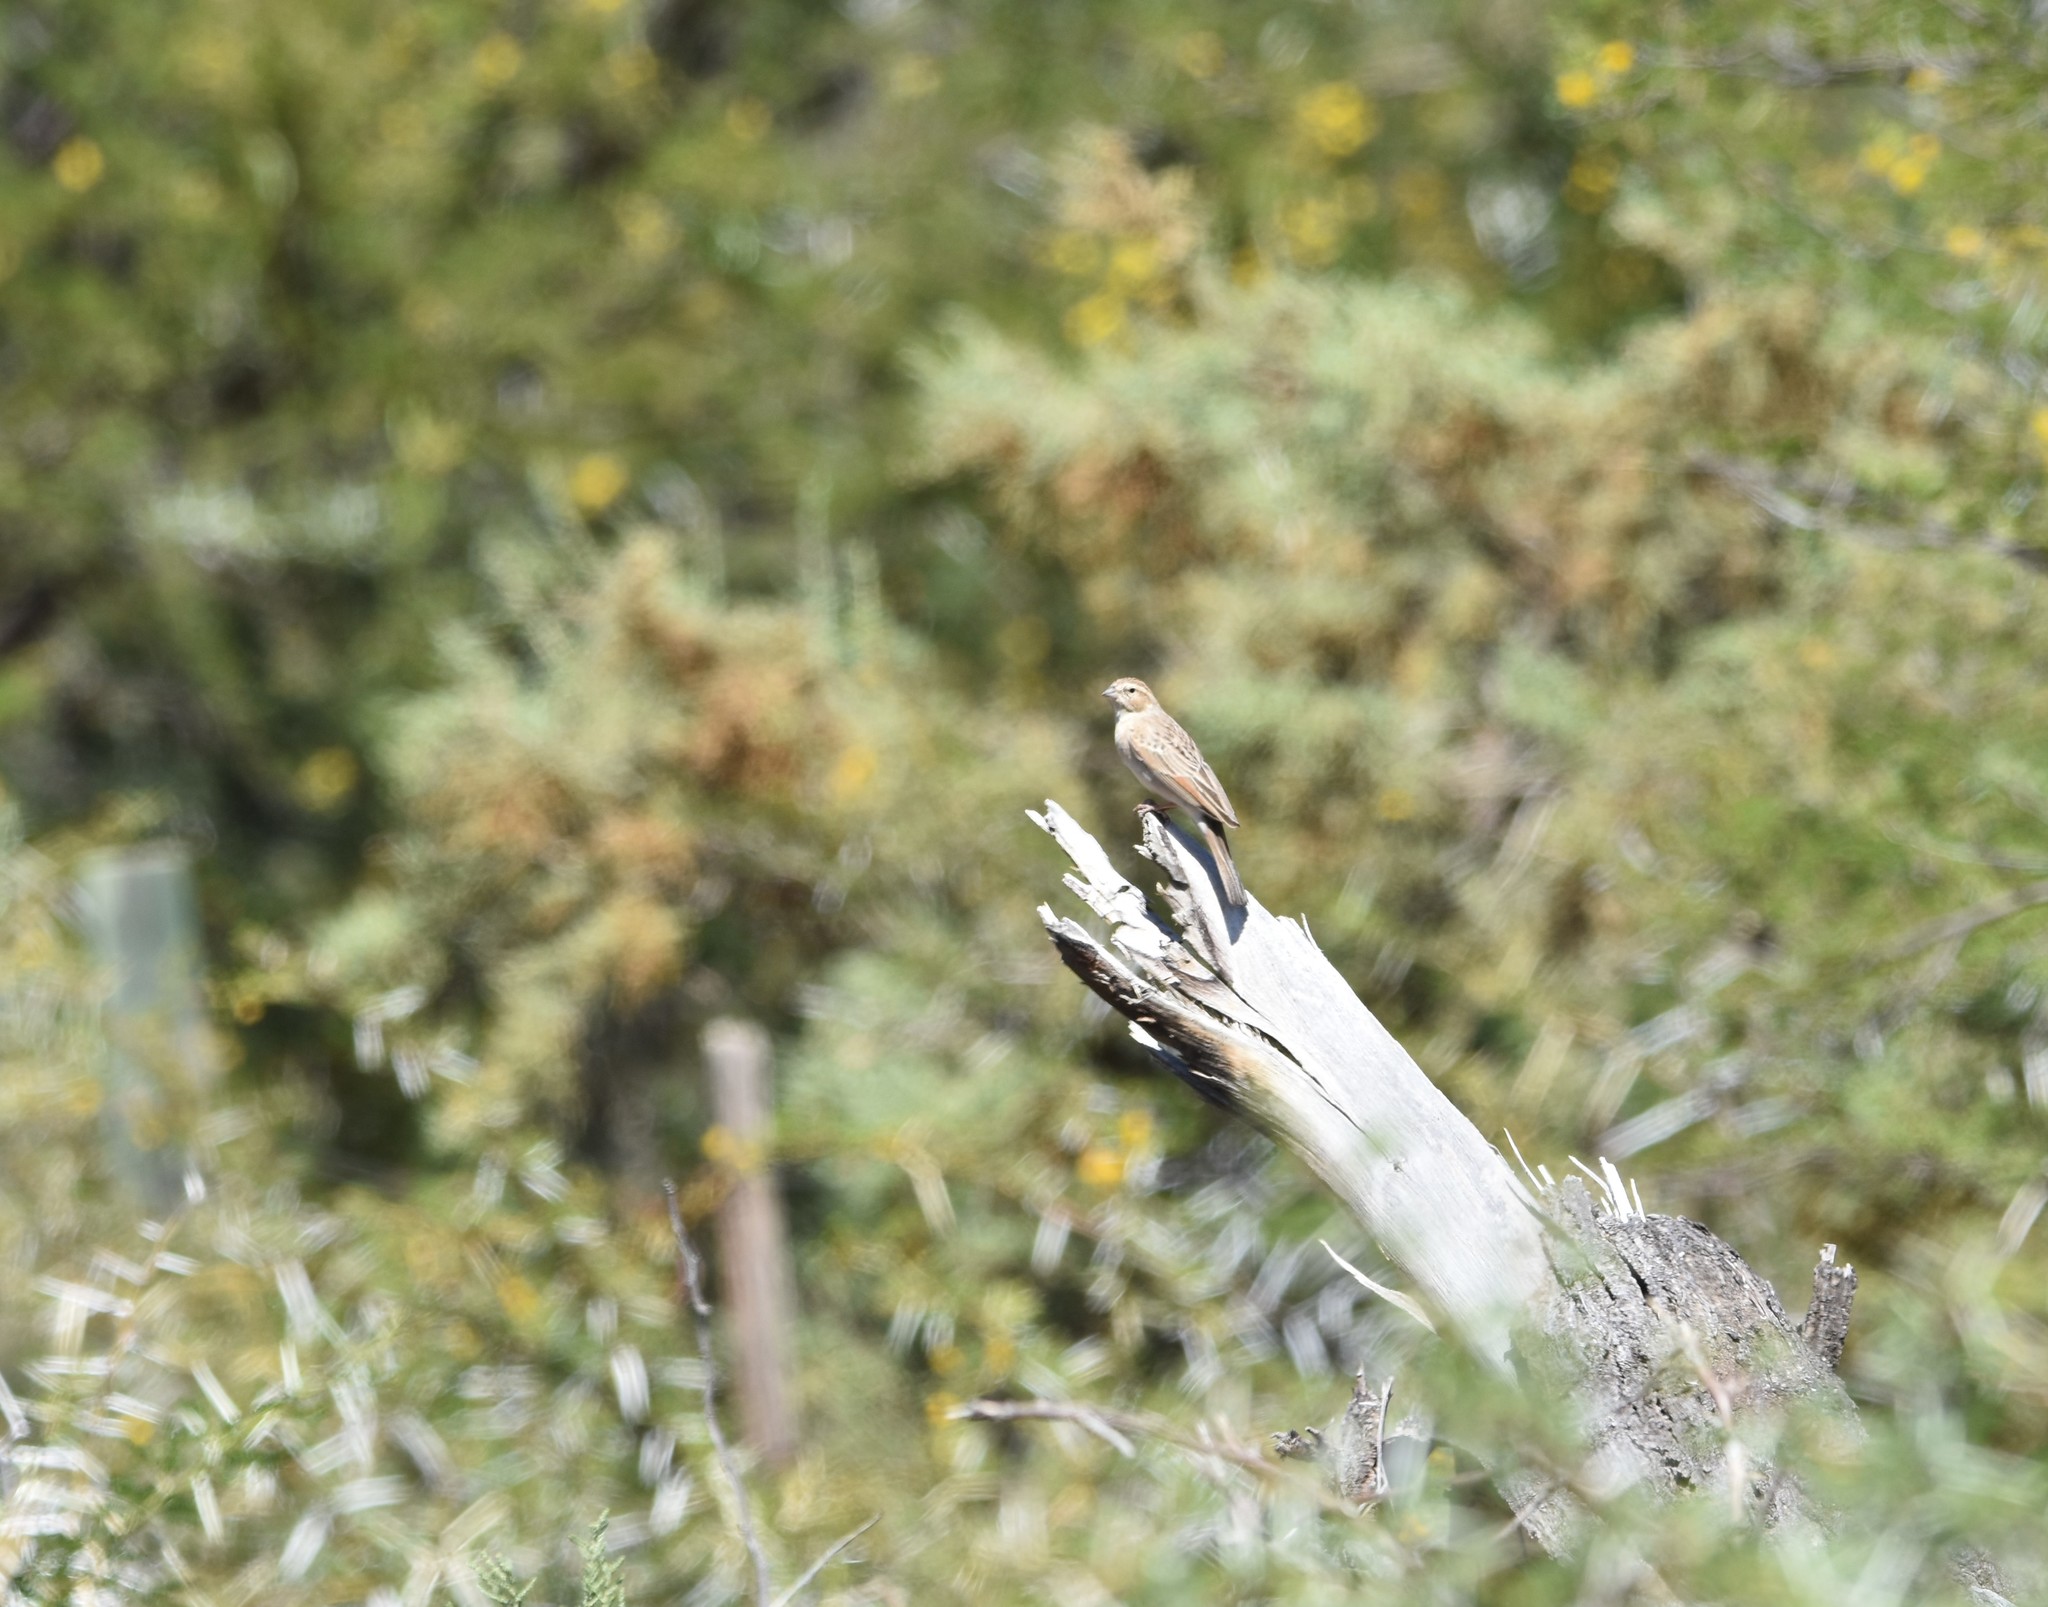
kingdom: Animalia
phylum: Chordata
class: Aves
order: Passeriformes
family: Emberizidae
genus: Emberiza
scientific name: Emberiza impetuani
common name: Lark-like bunting
